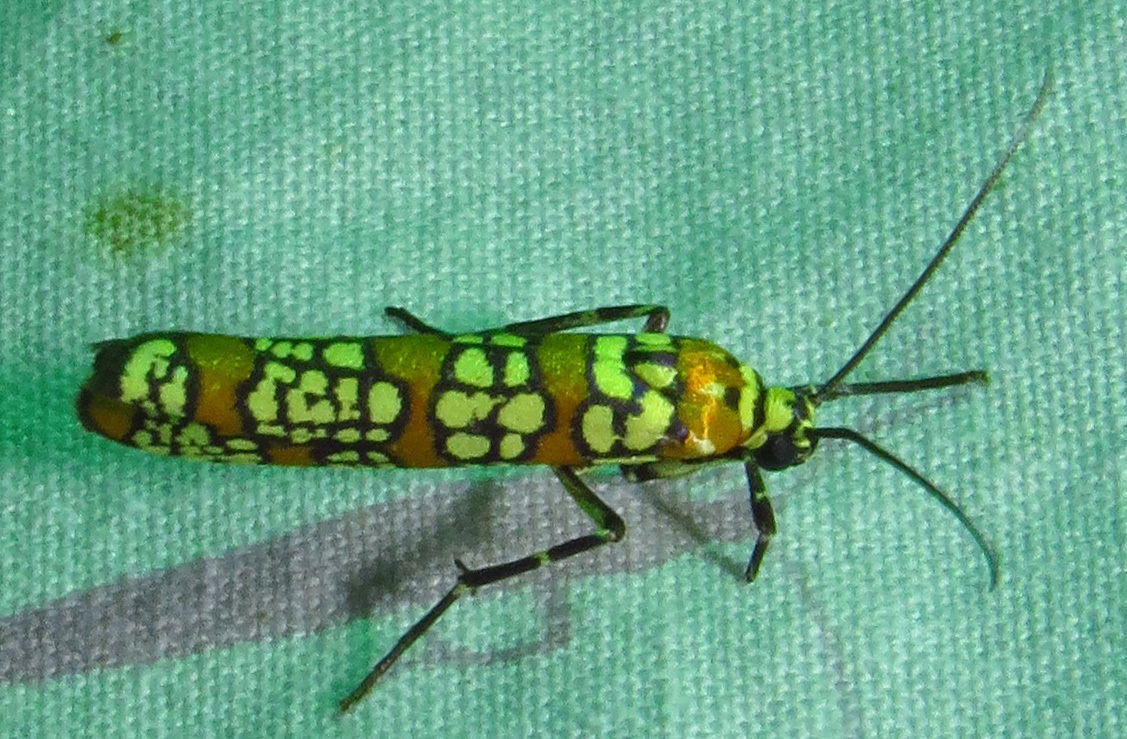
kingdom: Animalia
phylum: Arthropoda
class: Insecta
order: Lepidoptera
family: Attevidae
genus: Atteva
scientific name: Atteva punctella
